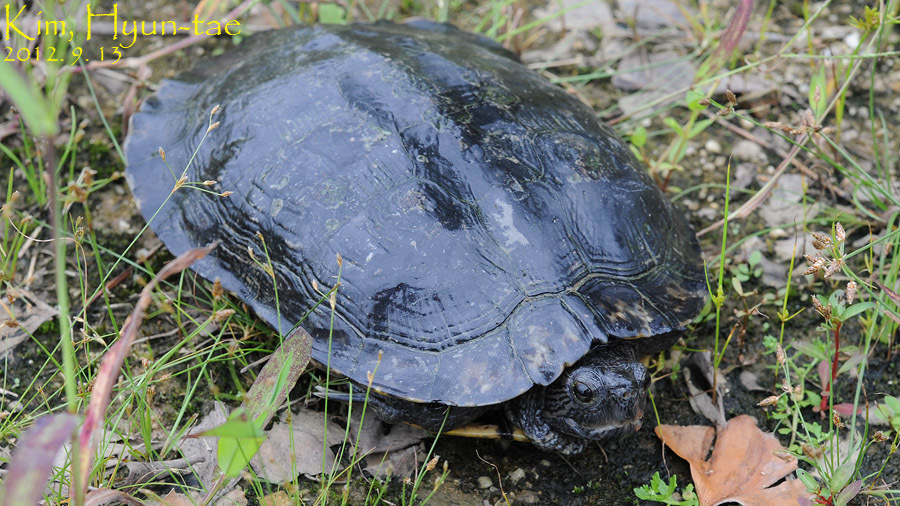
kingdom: Animalia
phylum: Chordata
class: Testudines
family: Emydidae
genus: Trachemys
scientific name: Trachemys scripta
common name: Slider
